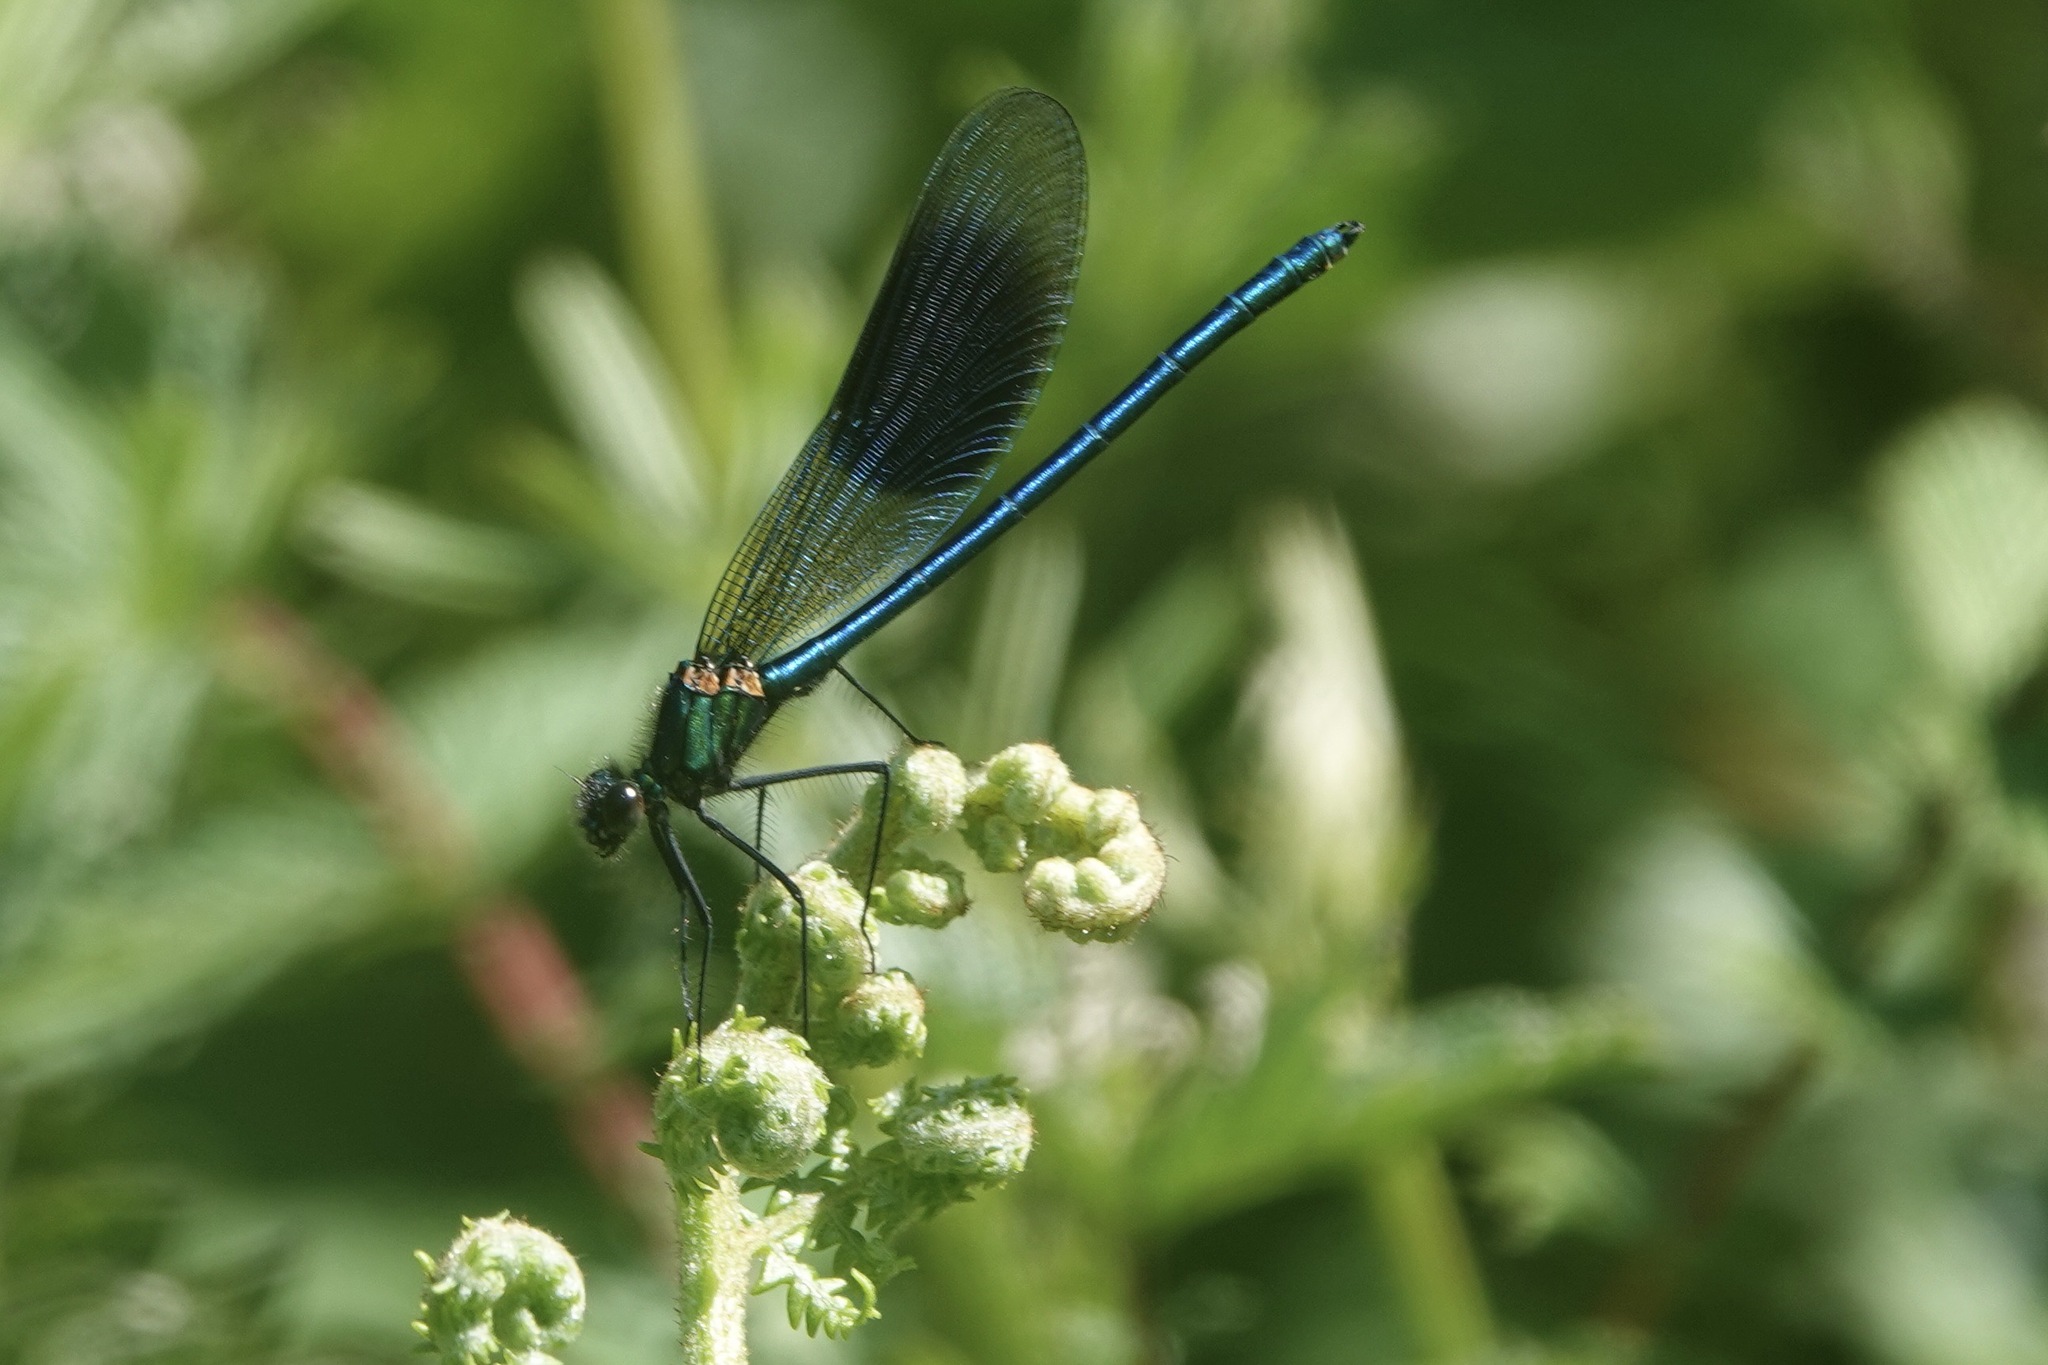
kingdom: Animalia
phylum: Arthropoda
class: Insecta
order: Odonata
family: Calopterygidae
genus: Calopteryx
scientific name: Calopteryx splendens
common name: Banded demoiselle
